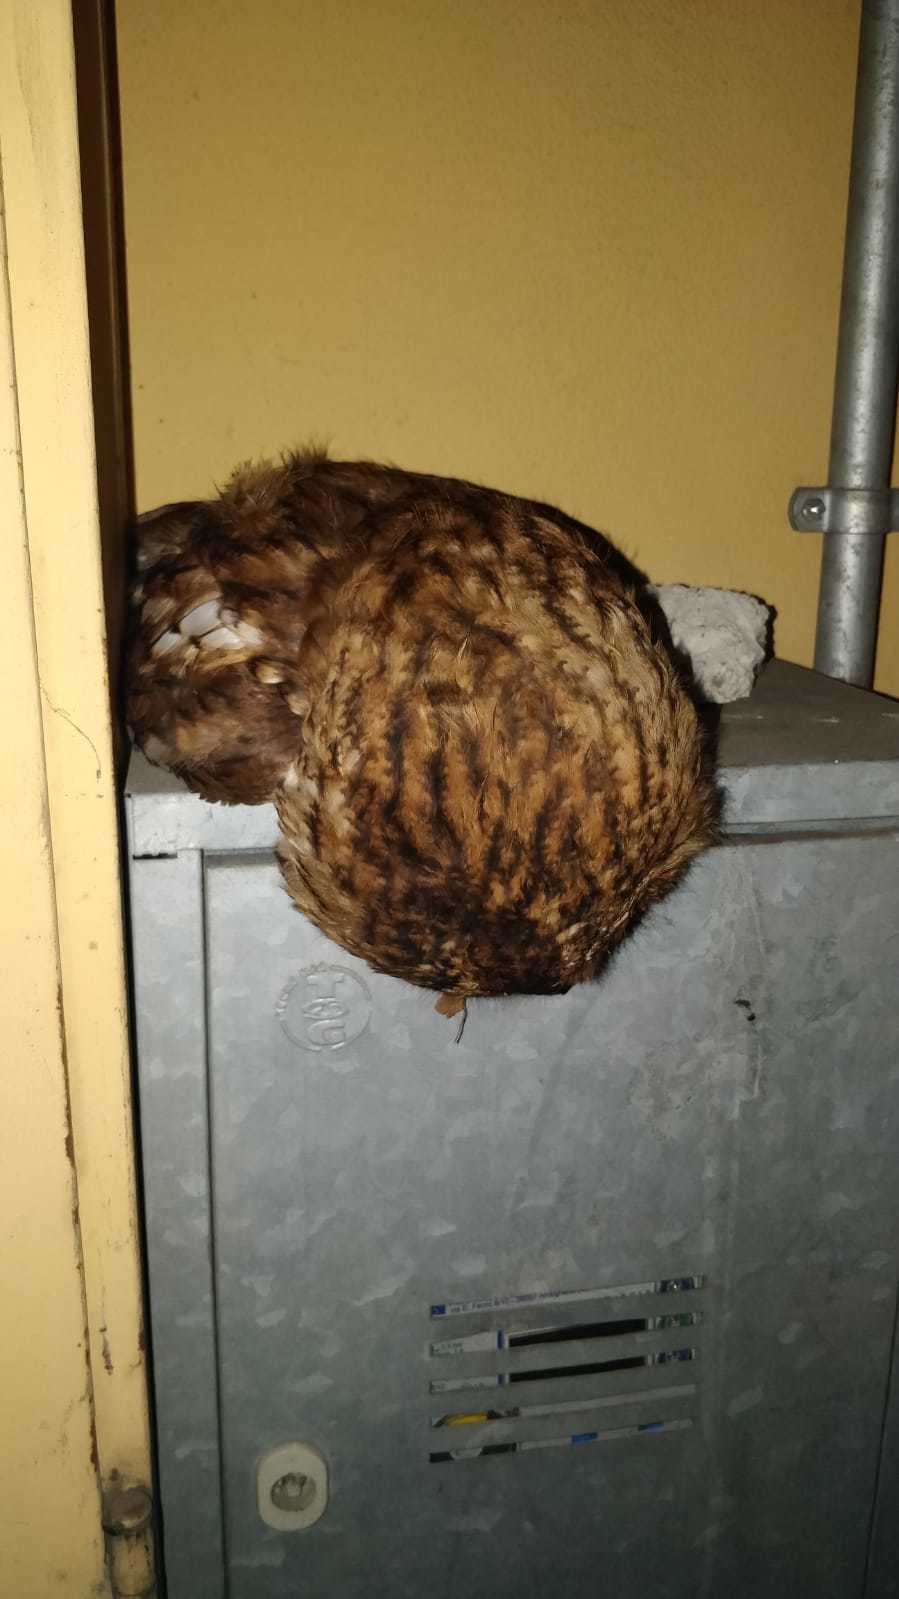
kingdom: Animalia
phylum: Chordata
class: Aves
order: Strigiformes
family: Strigidae
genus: Strix
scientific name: Strix aluco
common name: Tawny owl
